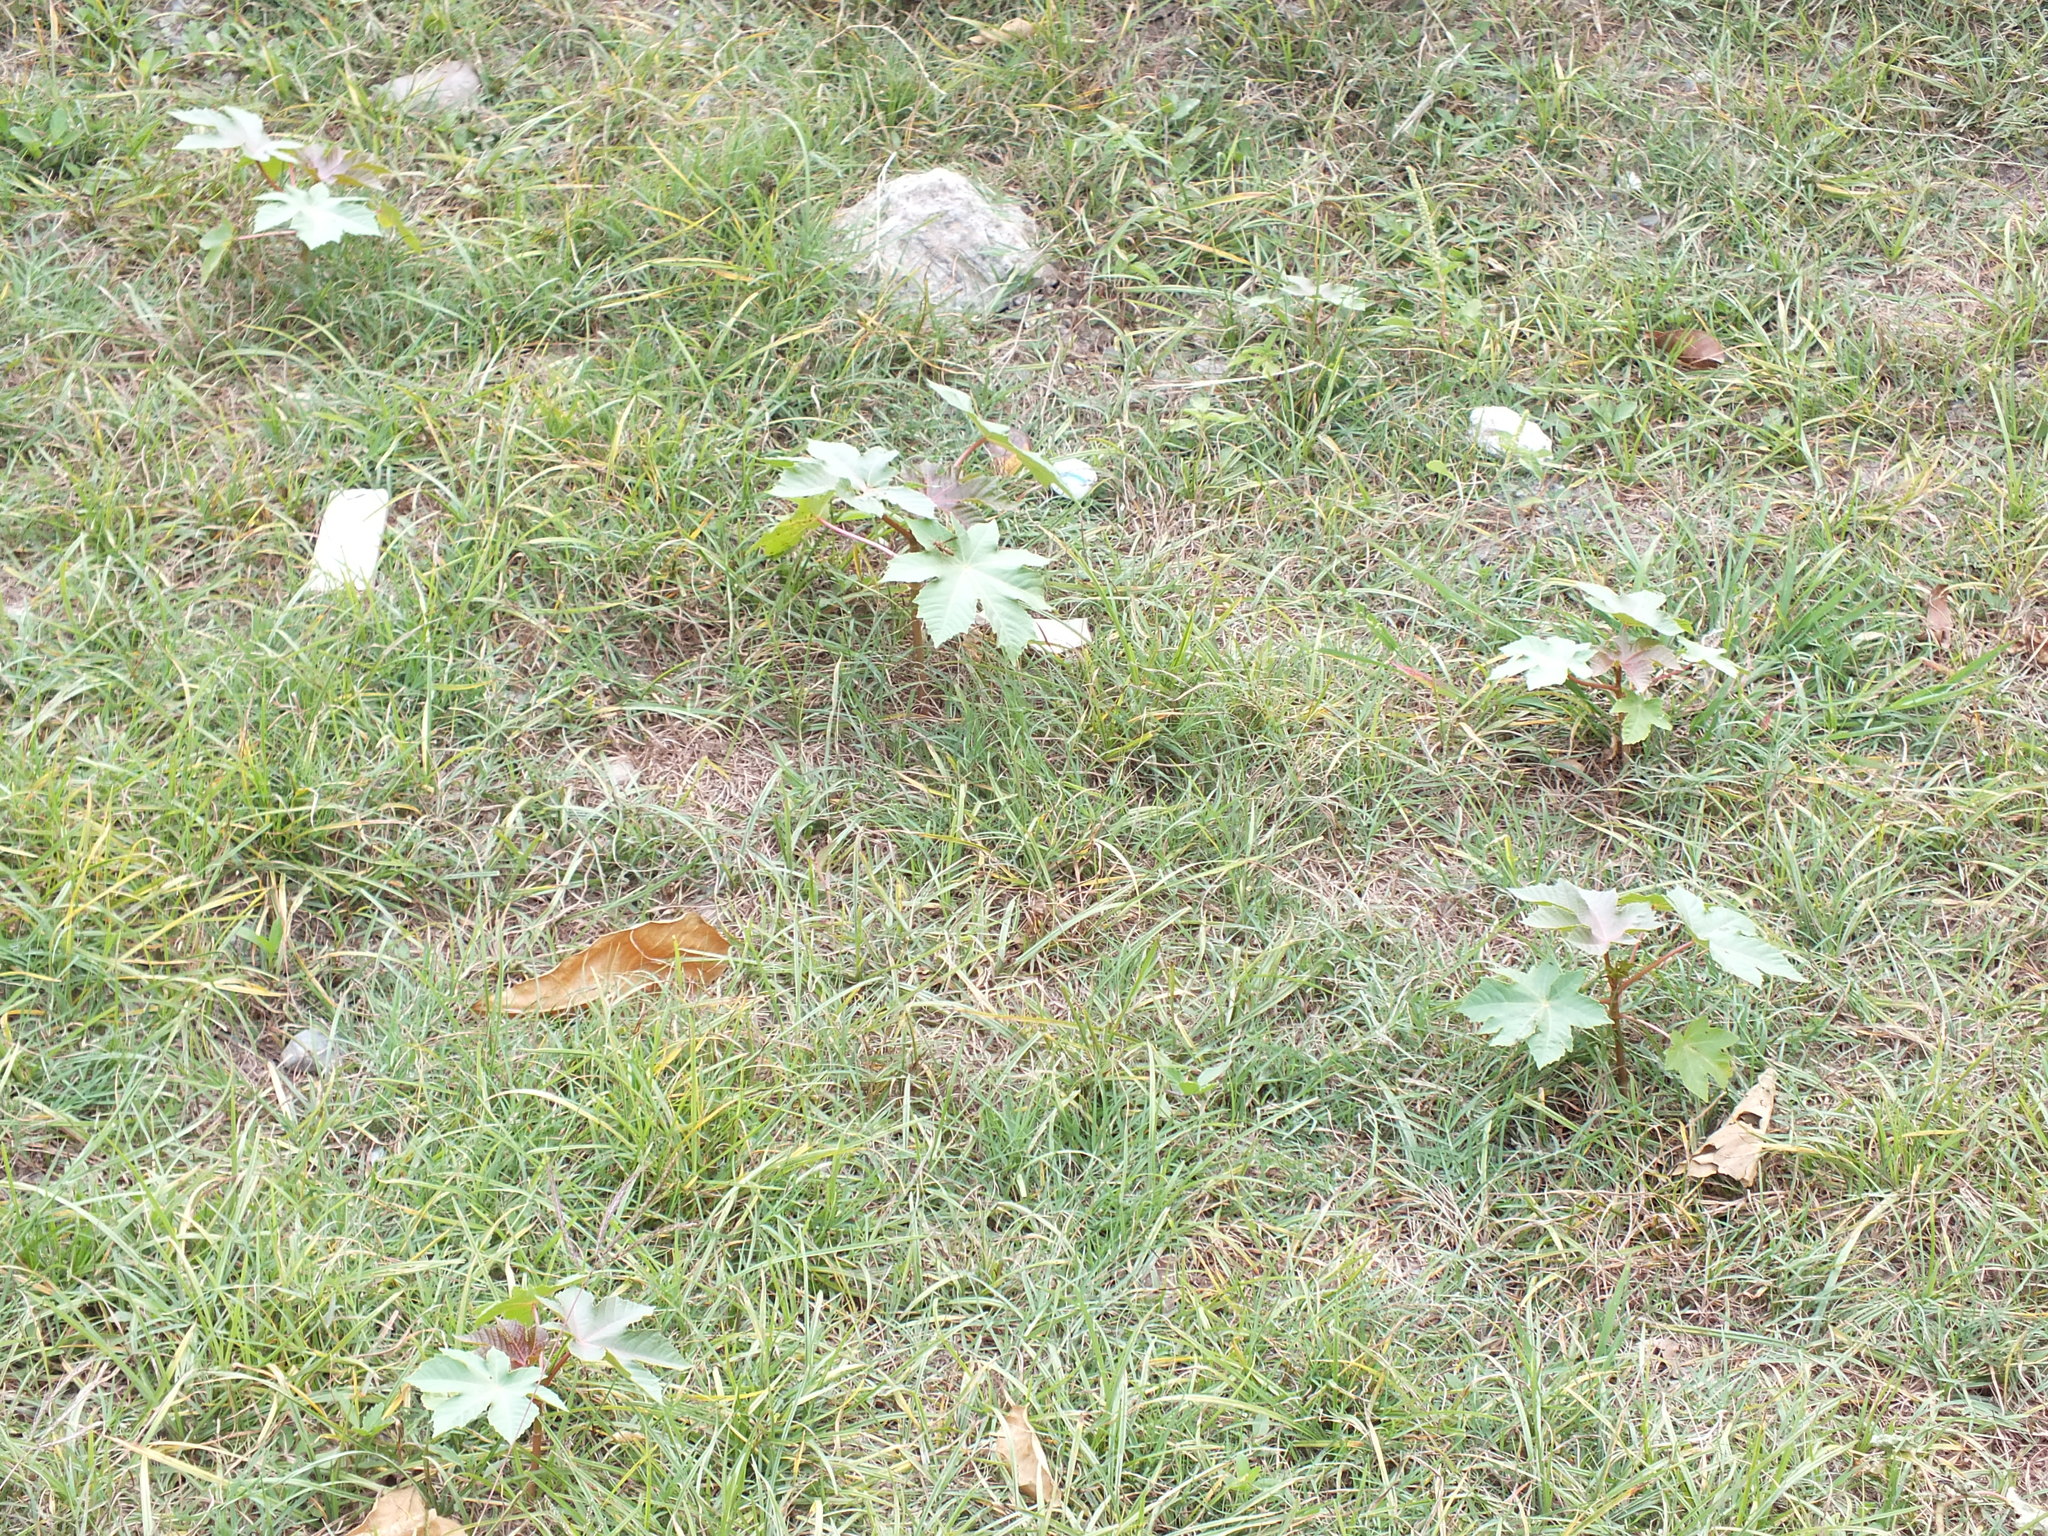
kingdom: Plantae
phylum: Tracheophyta
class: Magnoliopsida
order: Malpighiales
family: Euphorbiaceae
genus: Ricinus
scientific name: Ricinus communis
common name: Castor-oil-plant
